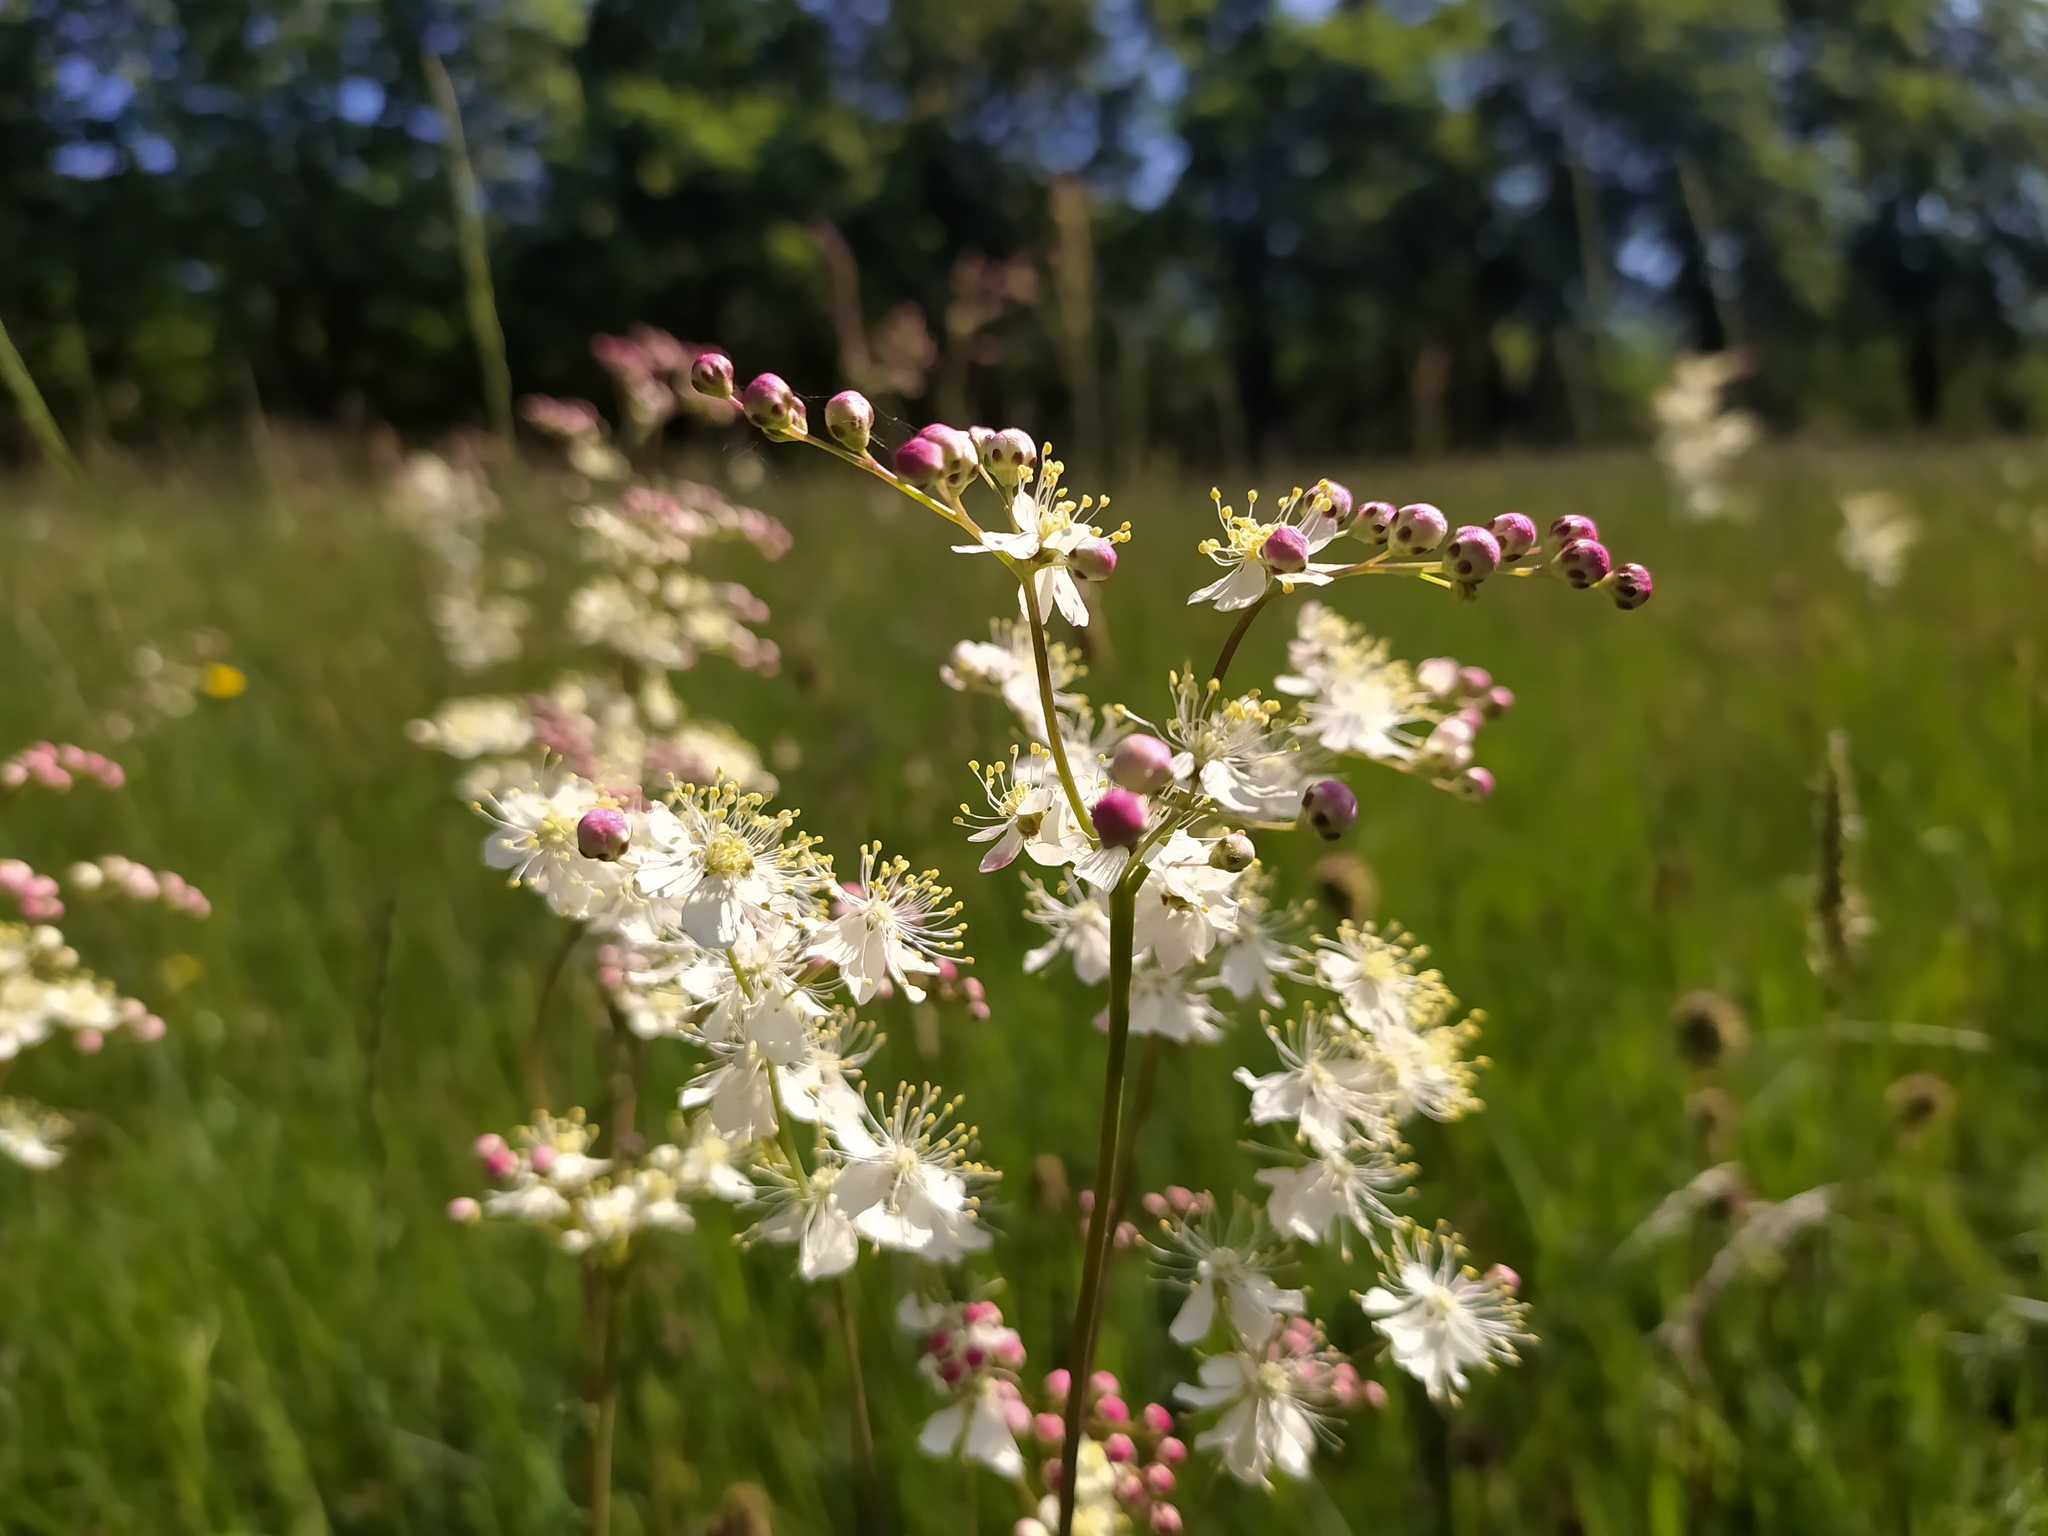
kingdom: Plantae
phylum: Tracheophyta
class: Magnoliopsida
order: Rosales
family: Rosaceae
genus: Filipendula
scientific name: Filipendula vulgaris
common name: Dropwort
